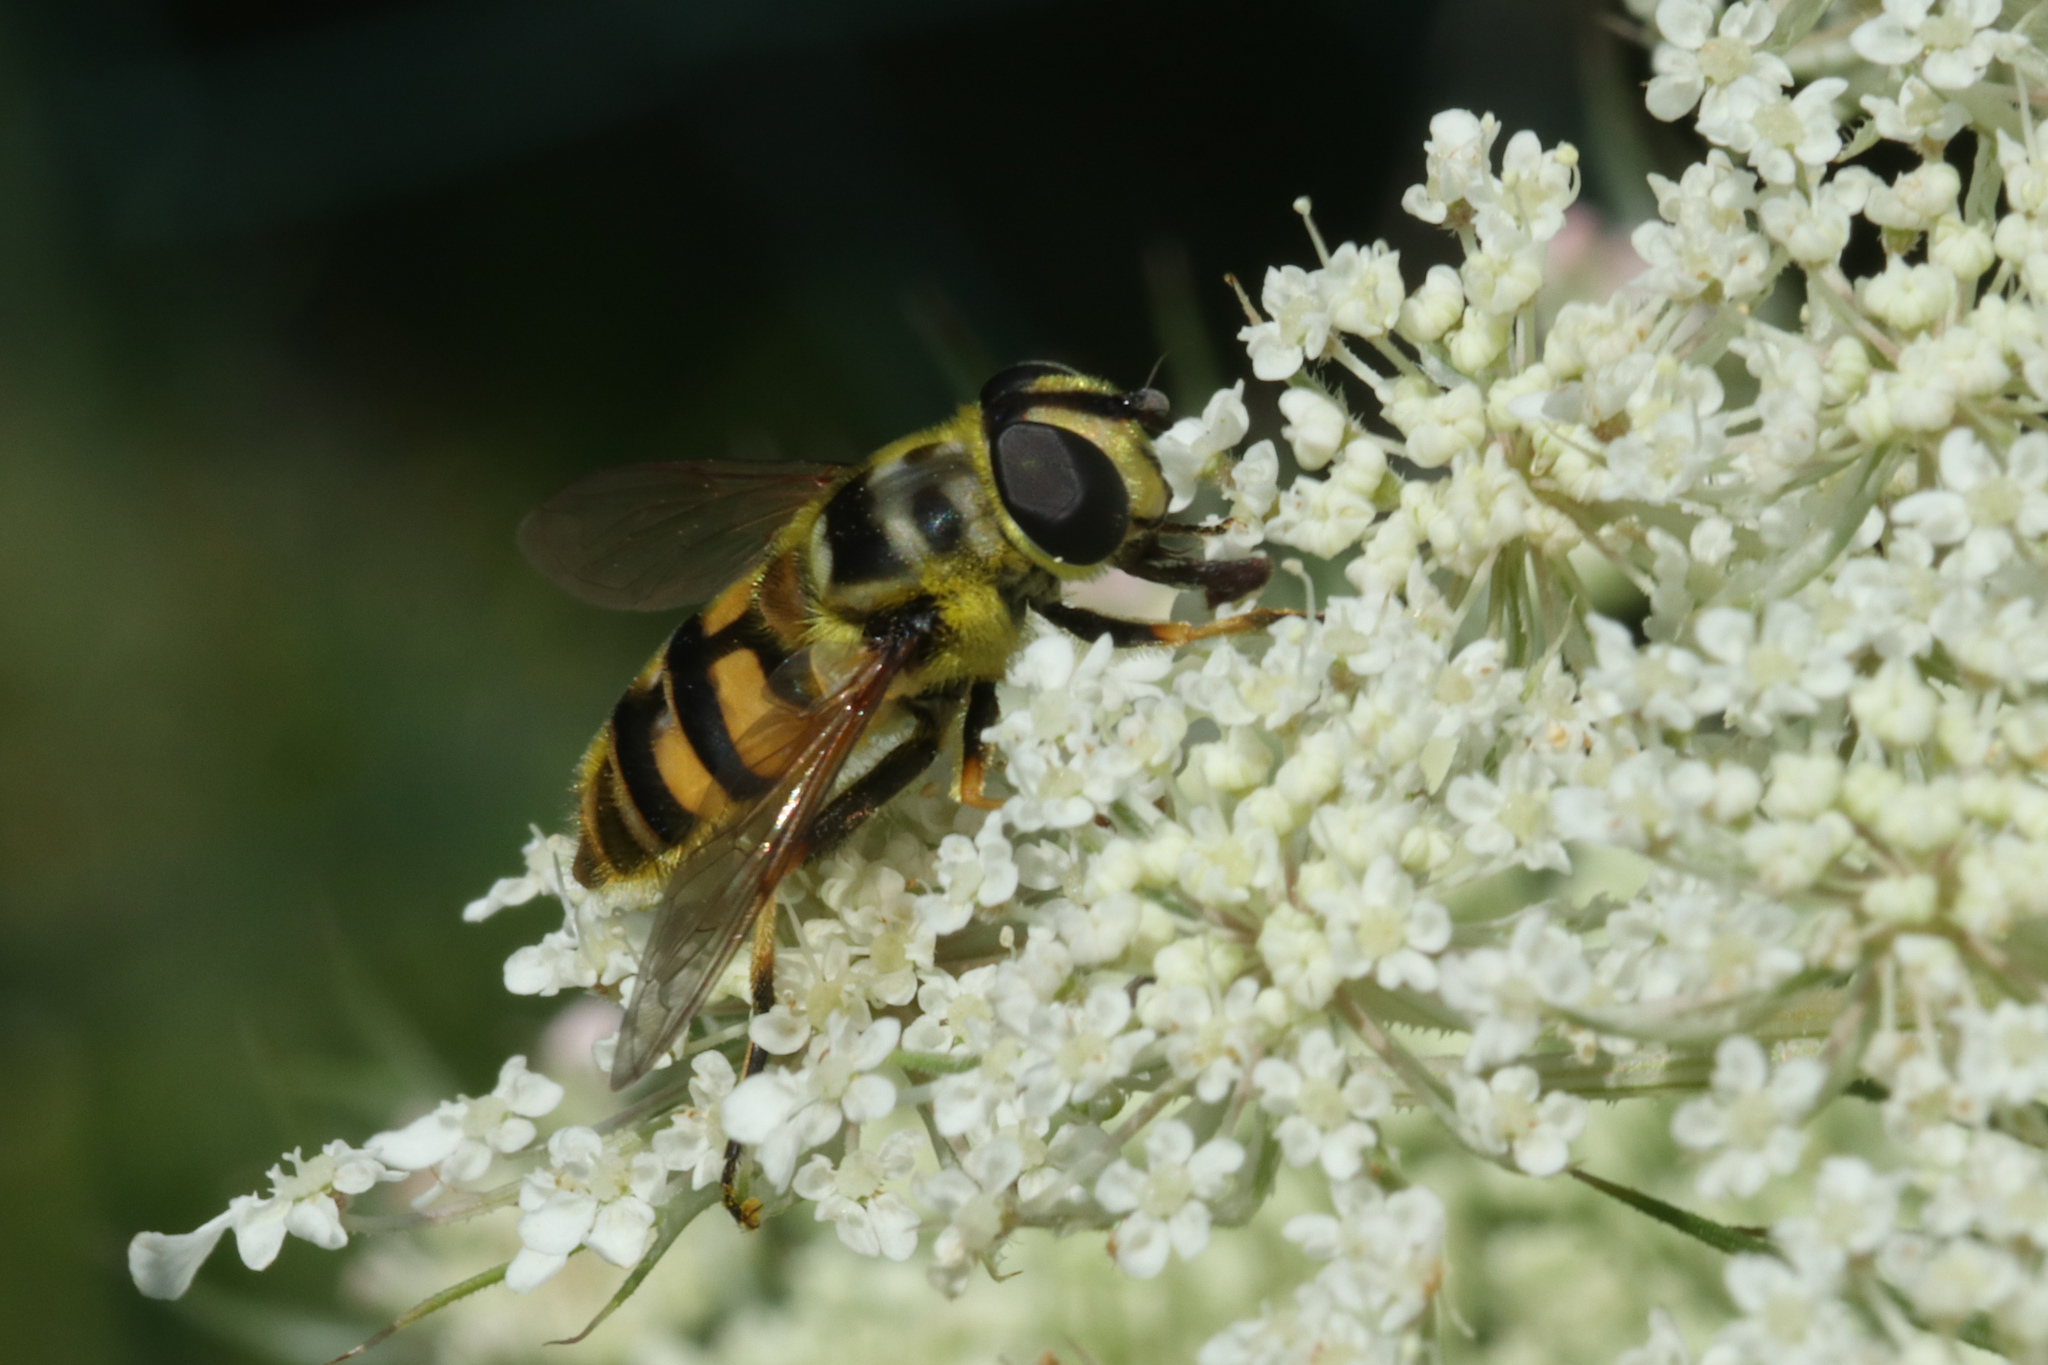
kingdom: Animalia
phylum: Arthropoda
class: Insecta
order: Diptera
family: Syrphidae
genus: Myathropa
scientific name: Myathropa florea
